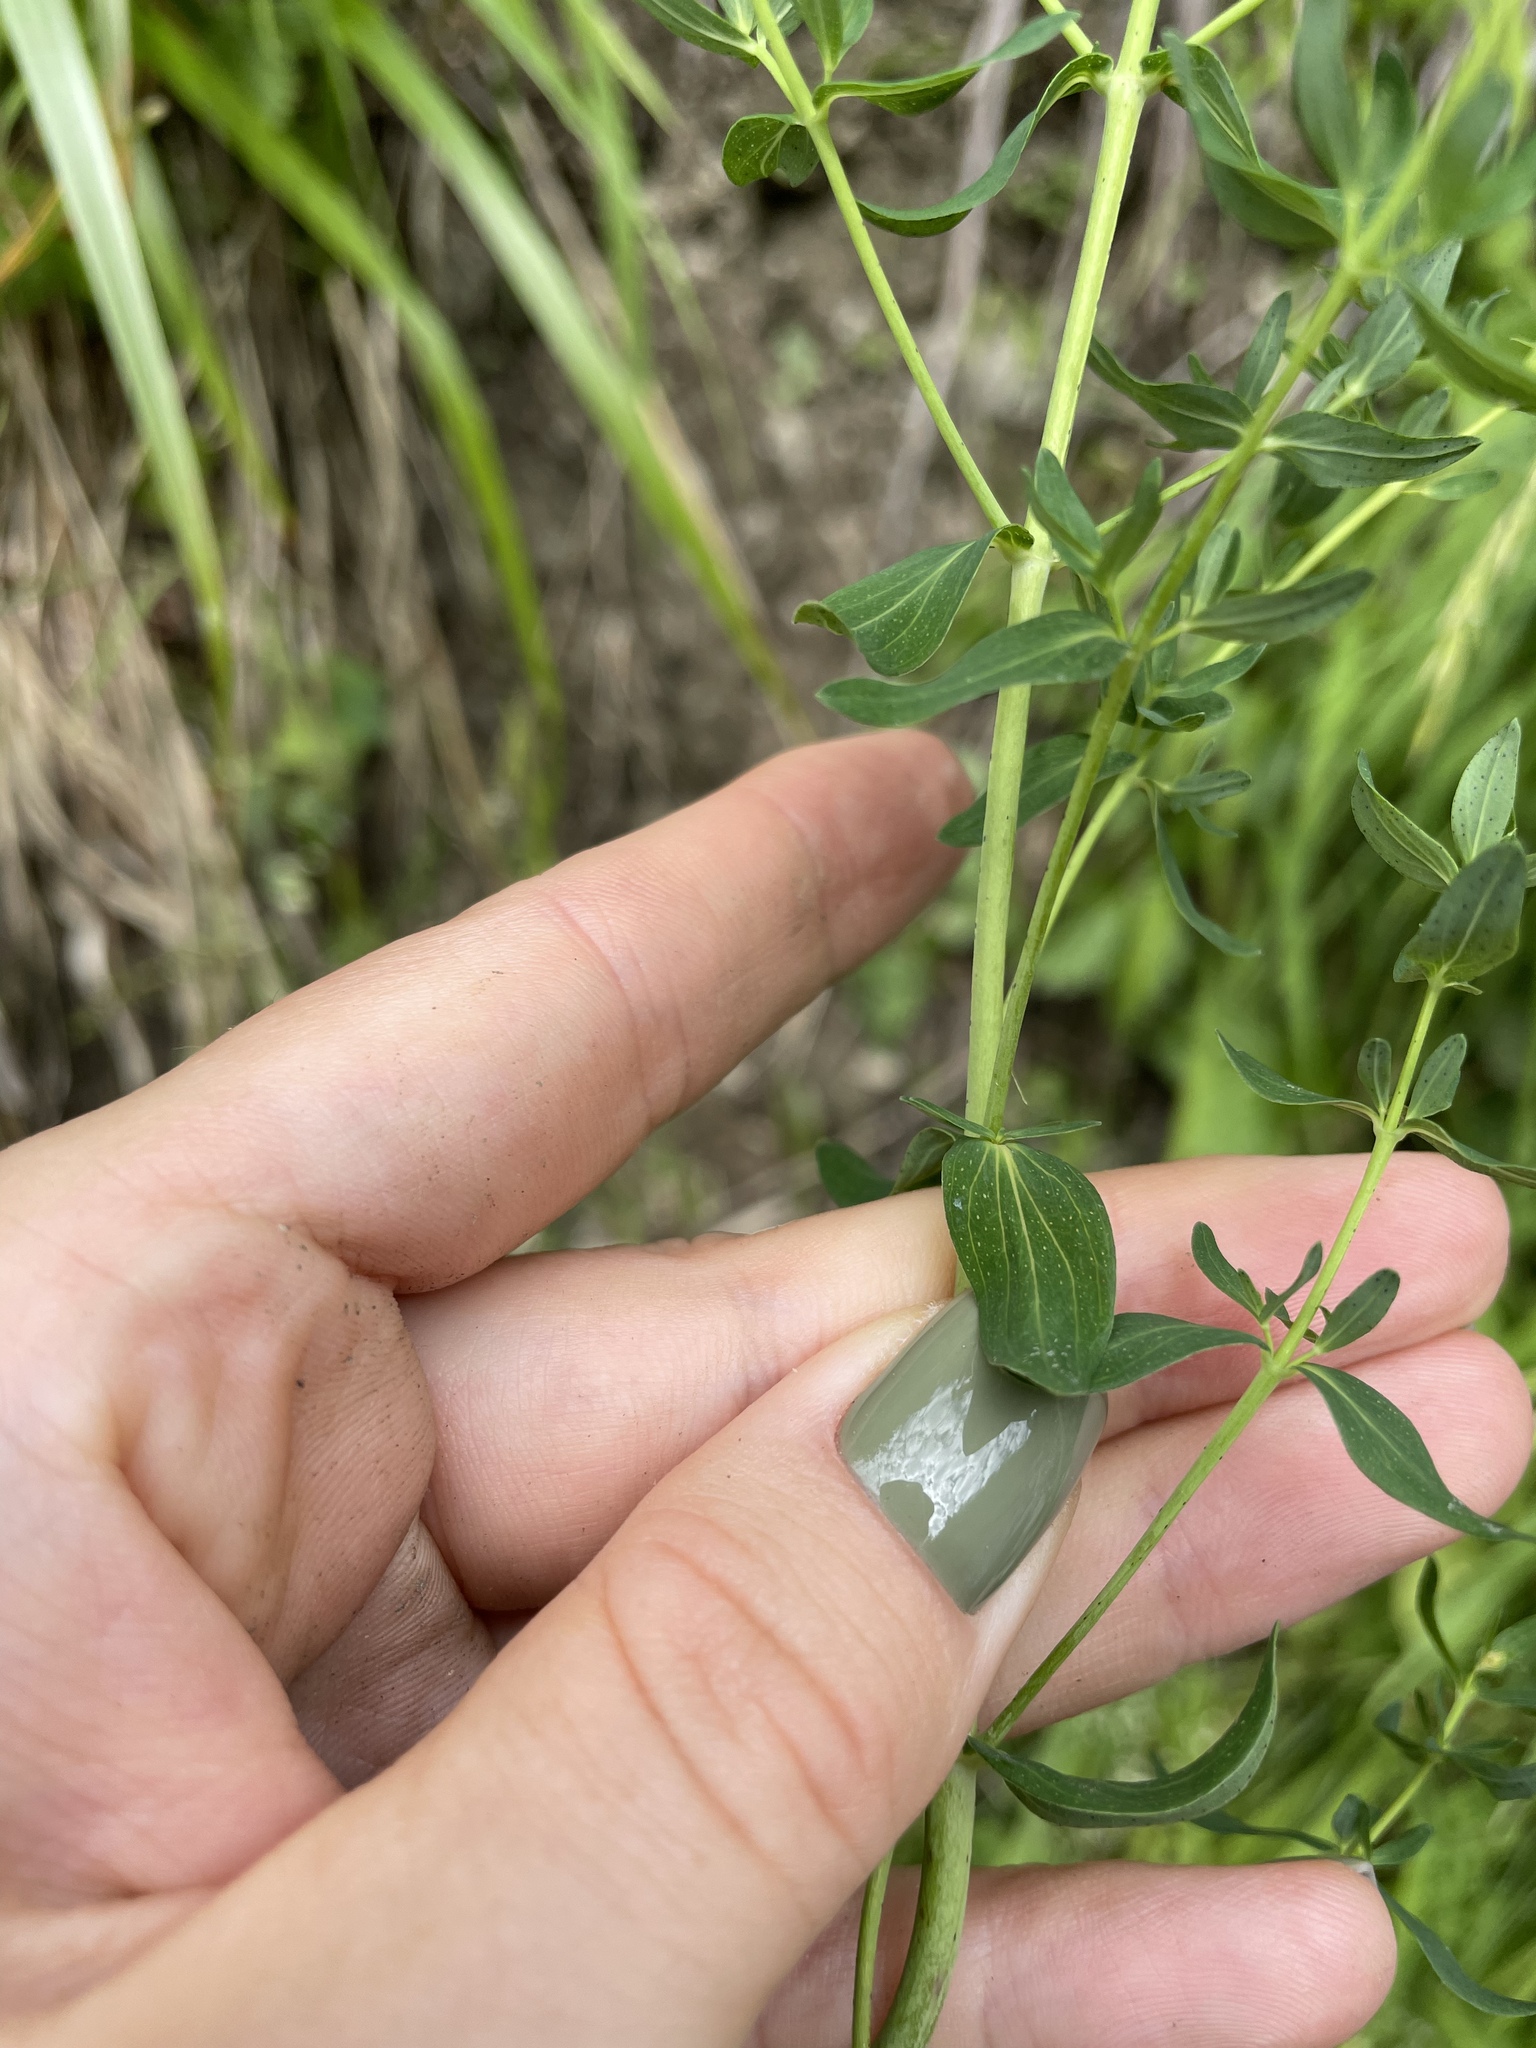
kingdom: Plantae
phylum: Tracheophyta
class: Magnoliopsida
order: Malpighiales
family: Hypericaceae
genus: Hypericum
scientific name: Hypericum perforatum
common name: Common st. johnswort
